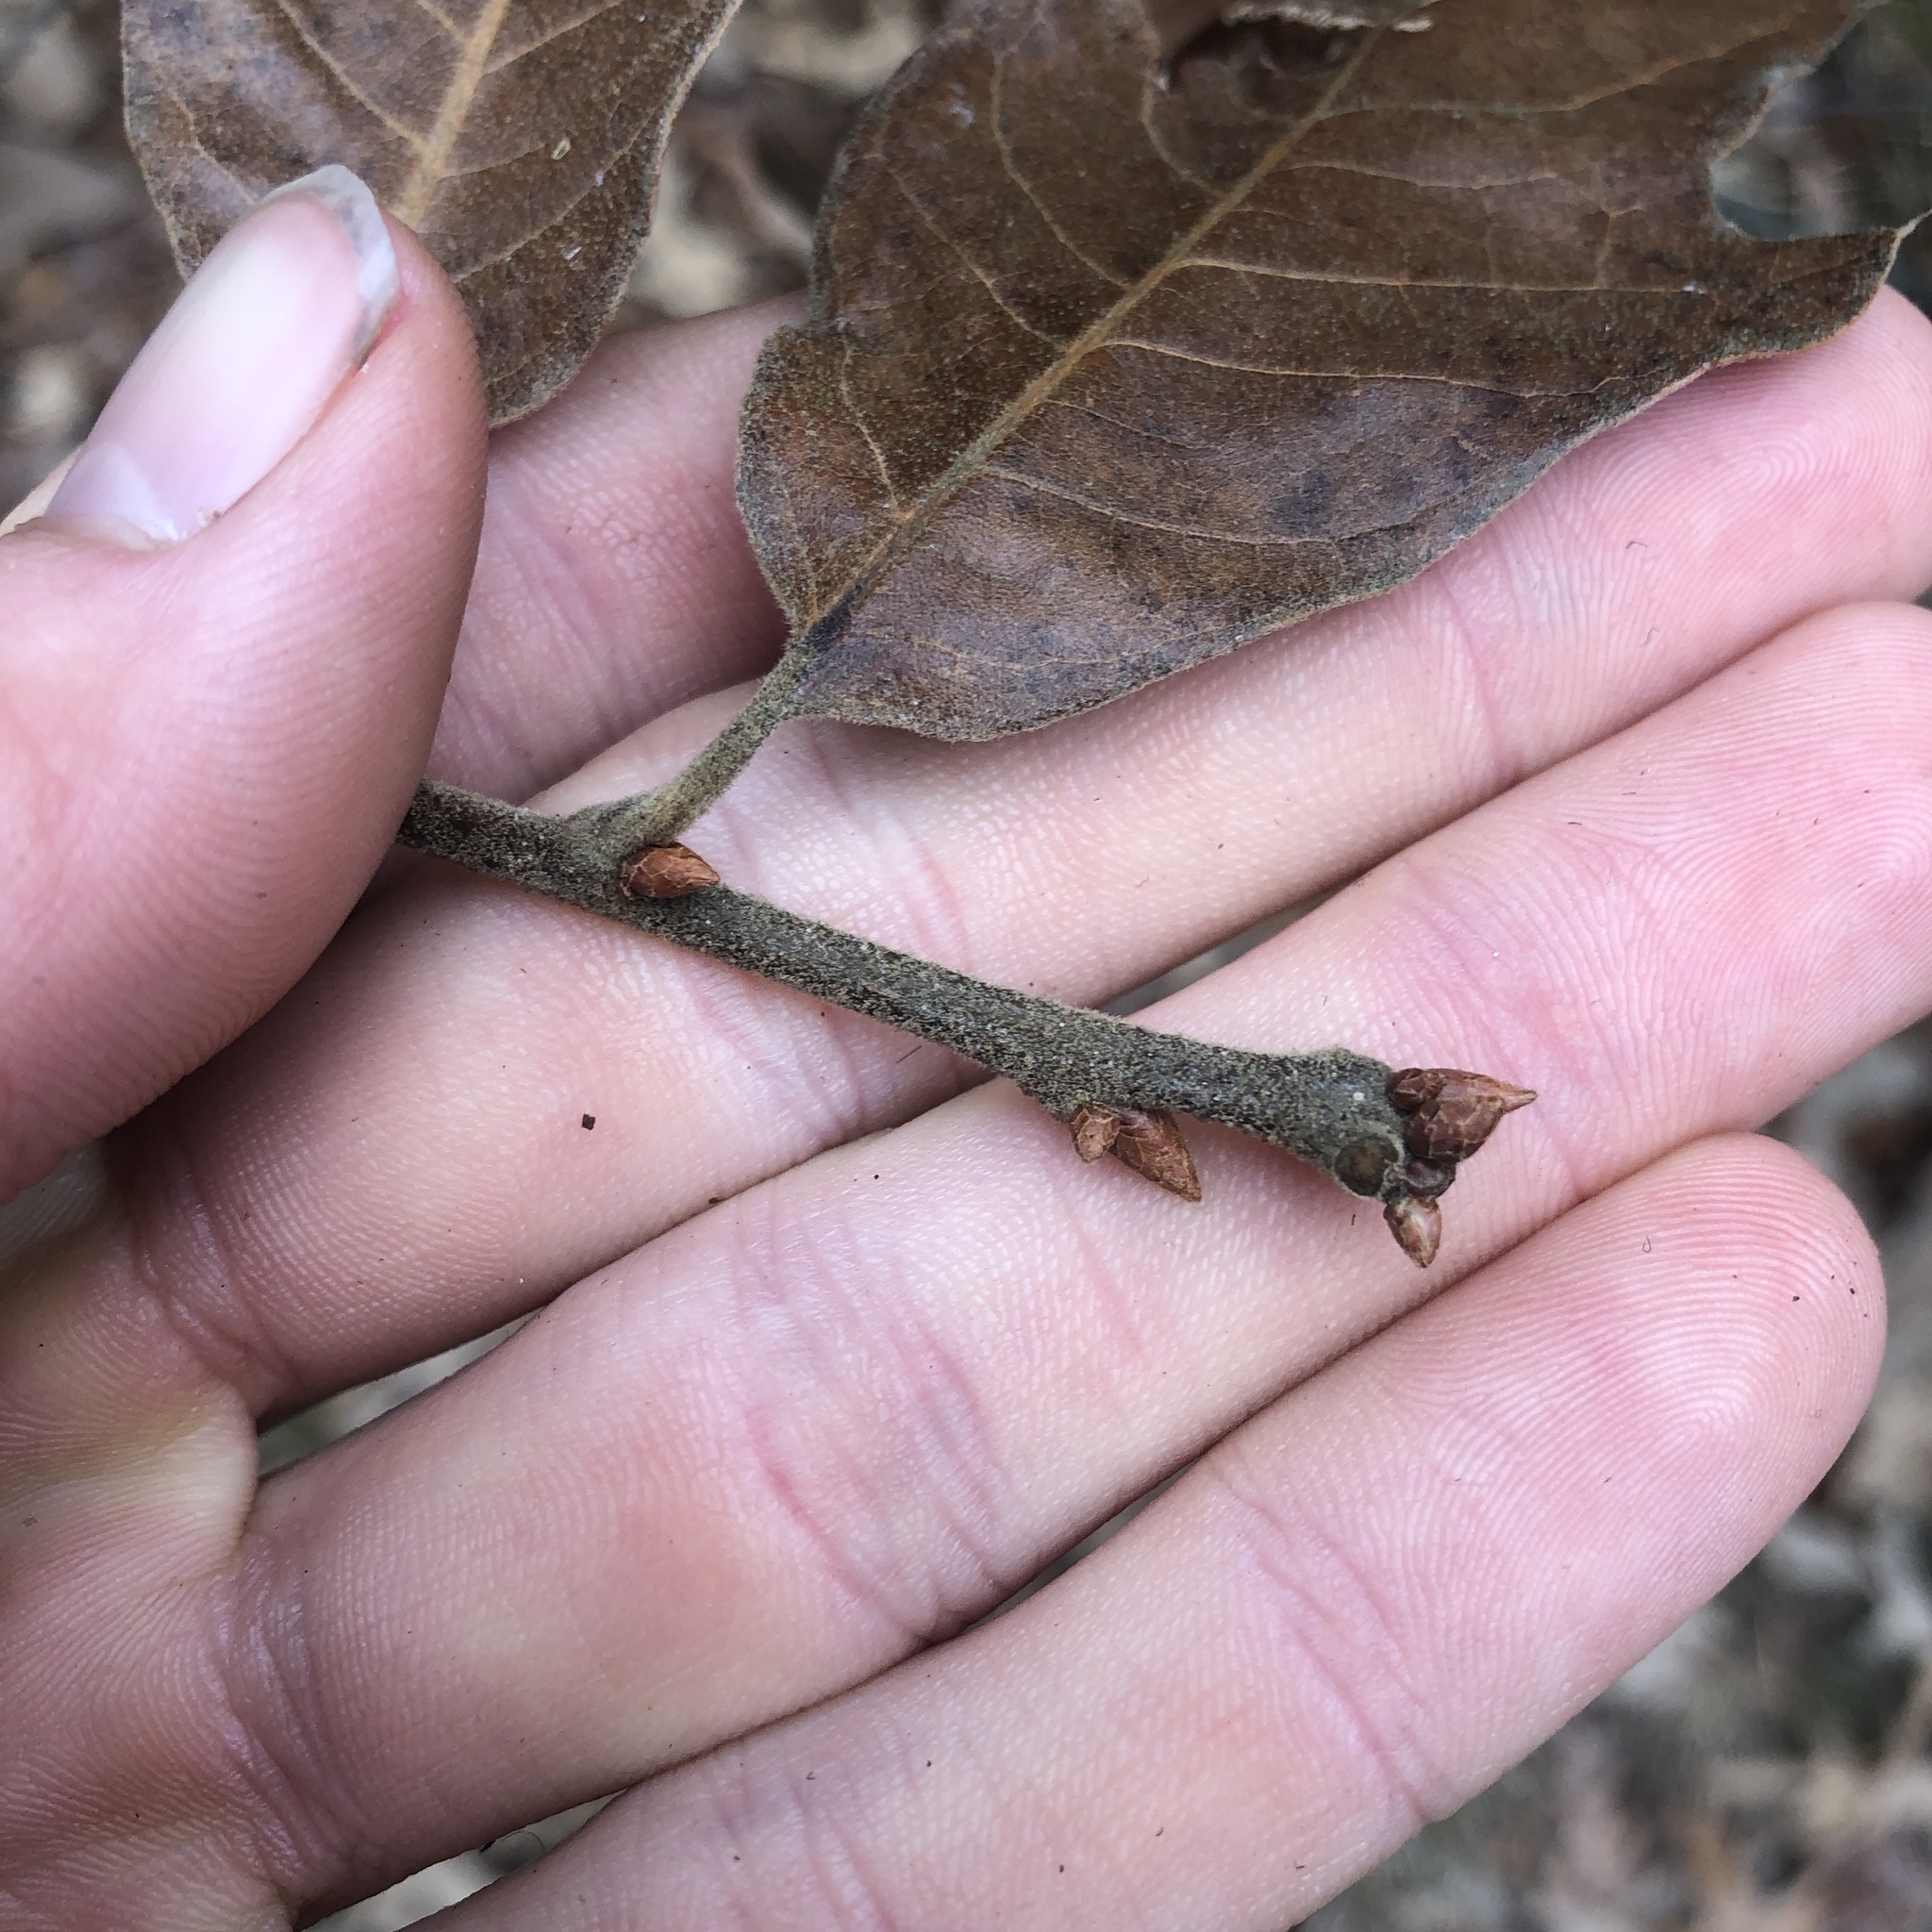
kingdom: Plantae
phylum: Tracheophyta
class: Magnoliopsida
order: Fagales
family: Fagaceae
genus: Quercus
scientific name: Quercus falcata
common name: Southern red oak
